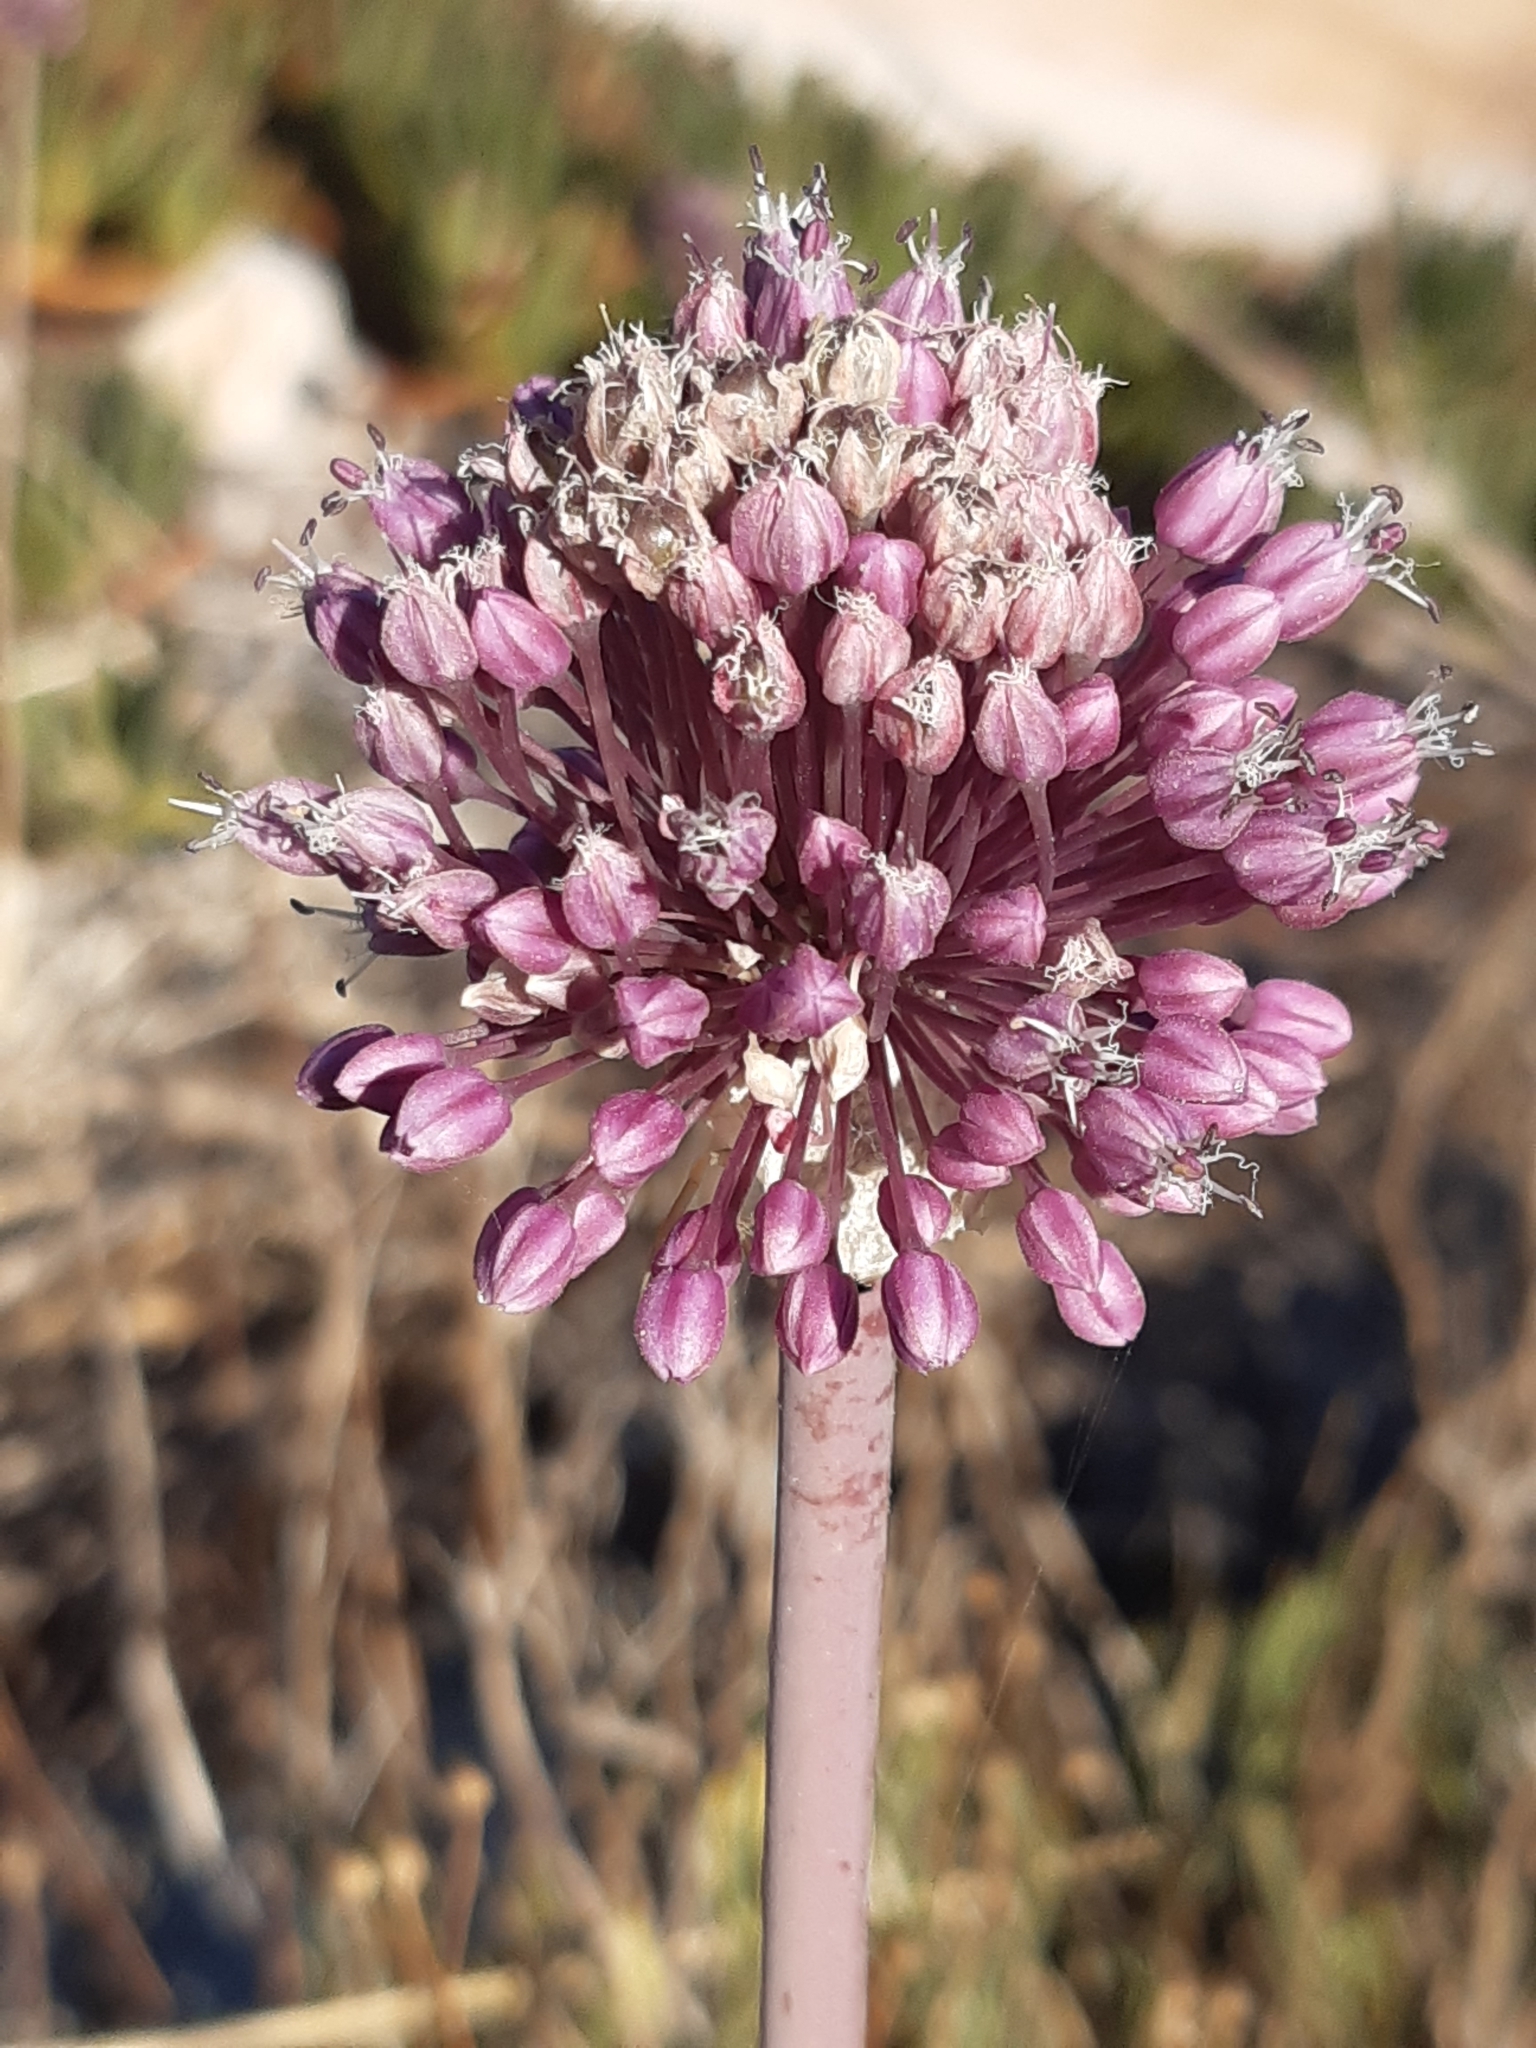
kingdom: Plantae
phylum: Tracheophyta
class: Liliopsida
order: Asparagales
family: Amaryllidaceae
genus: Allium
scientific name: Allium commutatum
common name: Sea garlic
